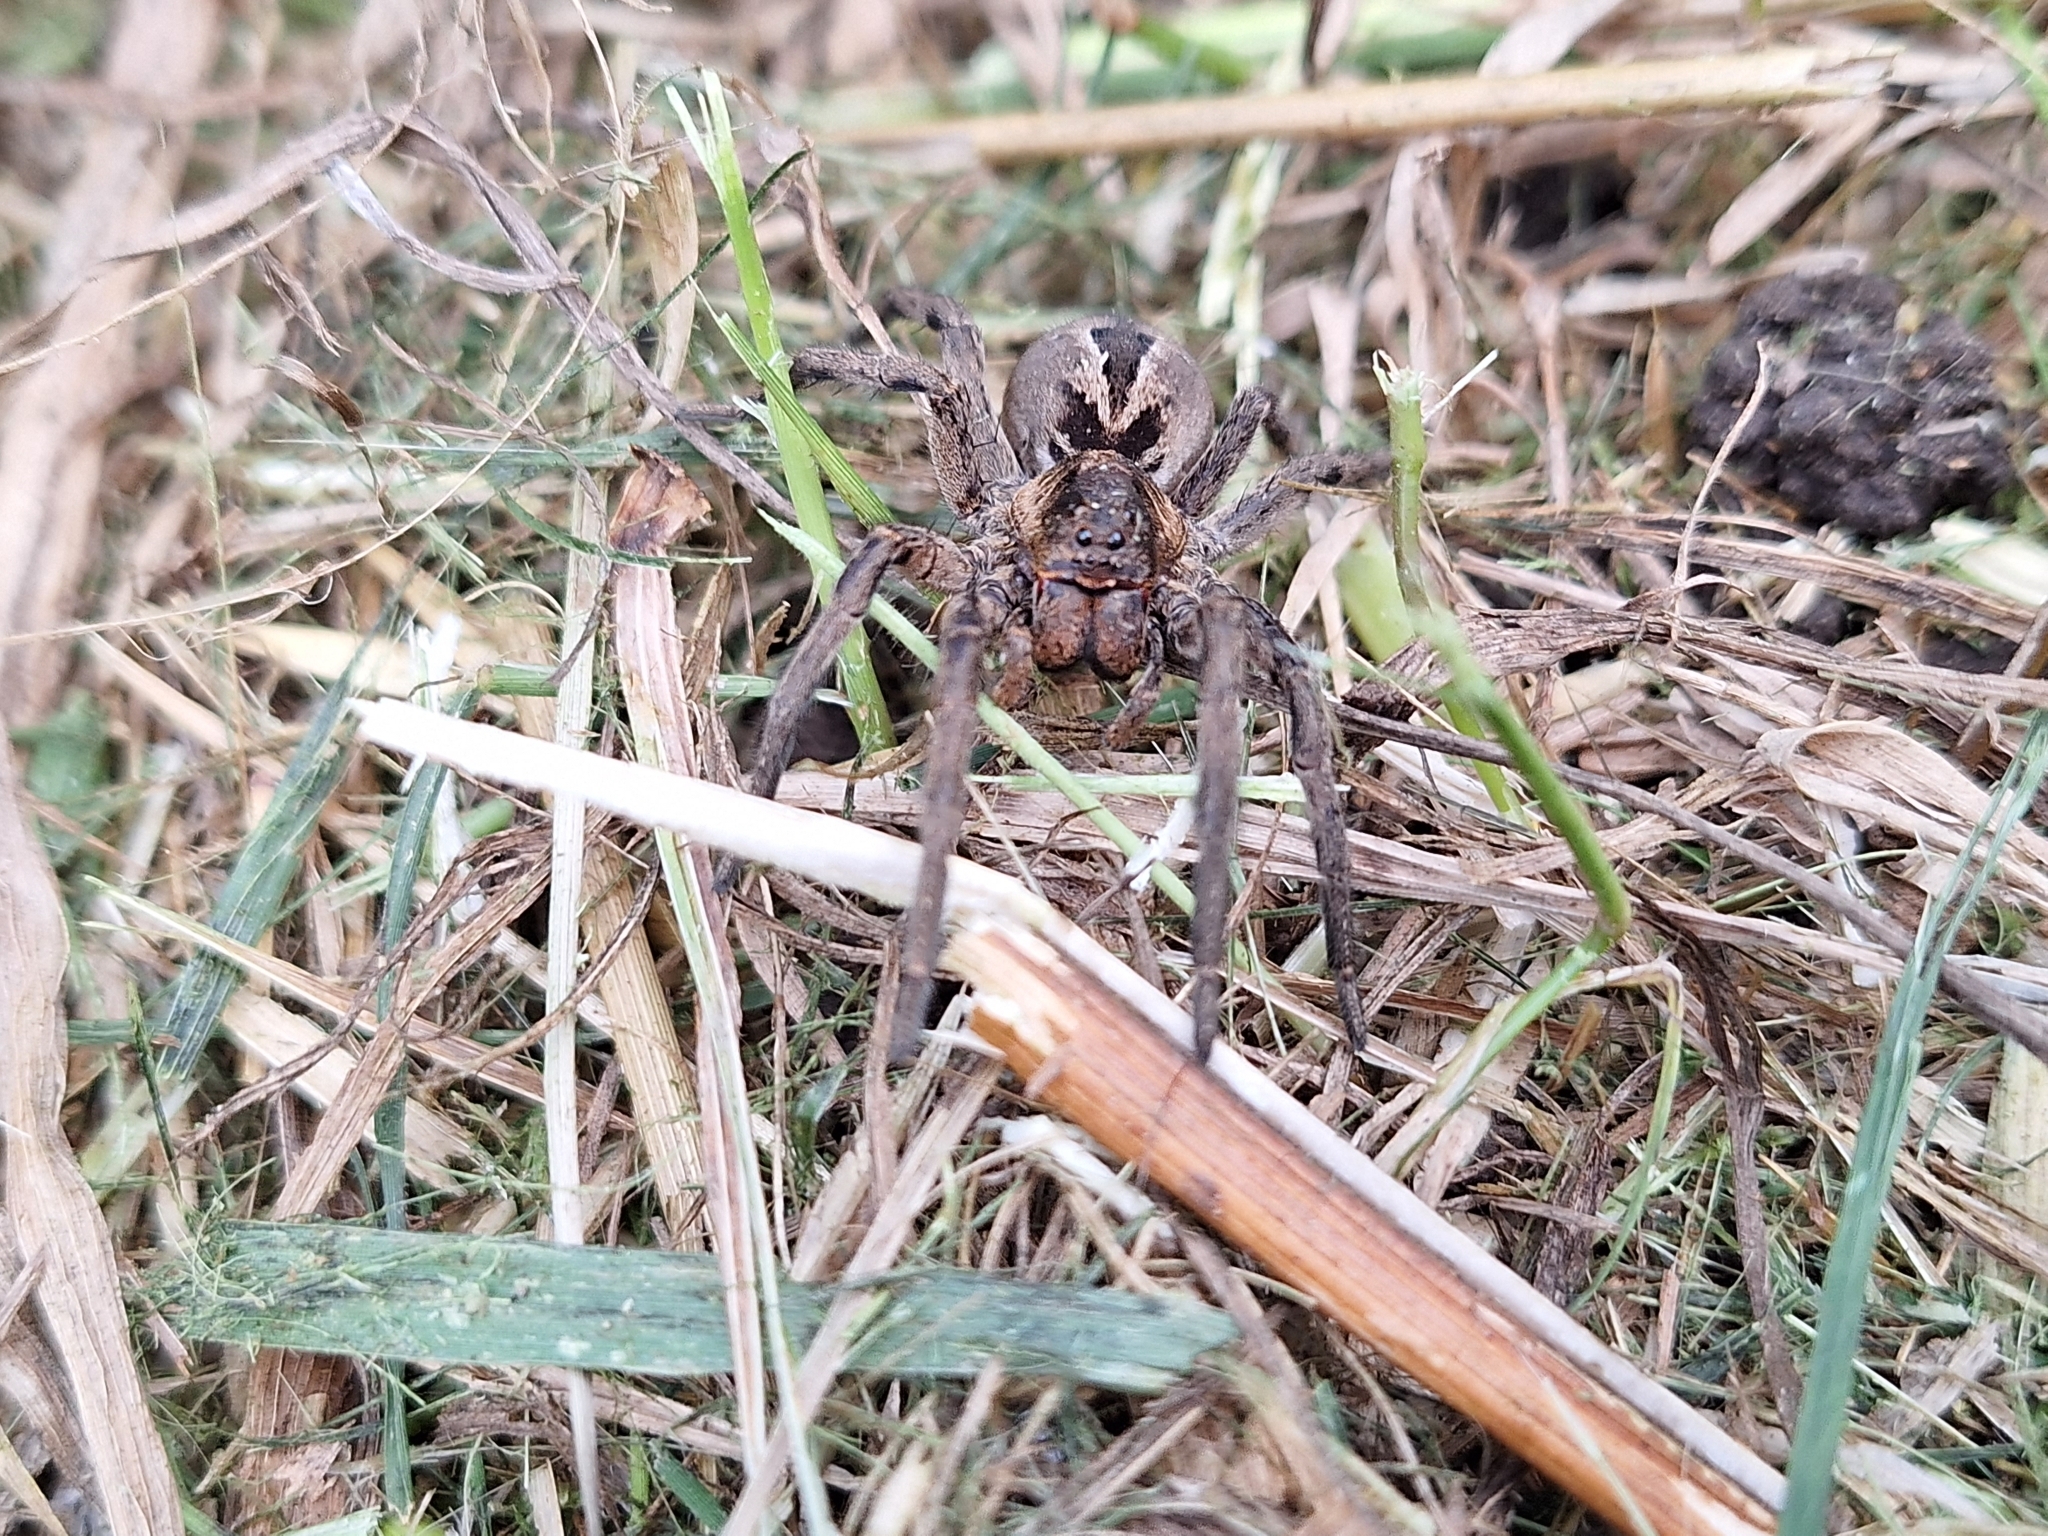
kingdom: Animalia
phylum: Arthropoda
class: Arachnida
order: Araneae
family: Lycosidae
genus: Lycosa
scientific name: Lycosa erythrognatha
